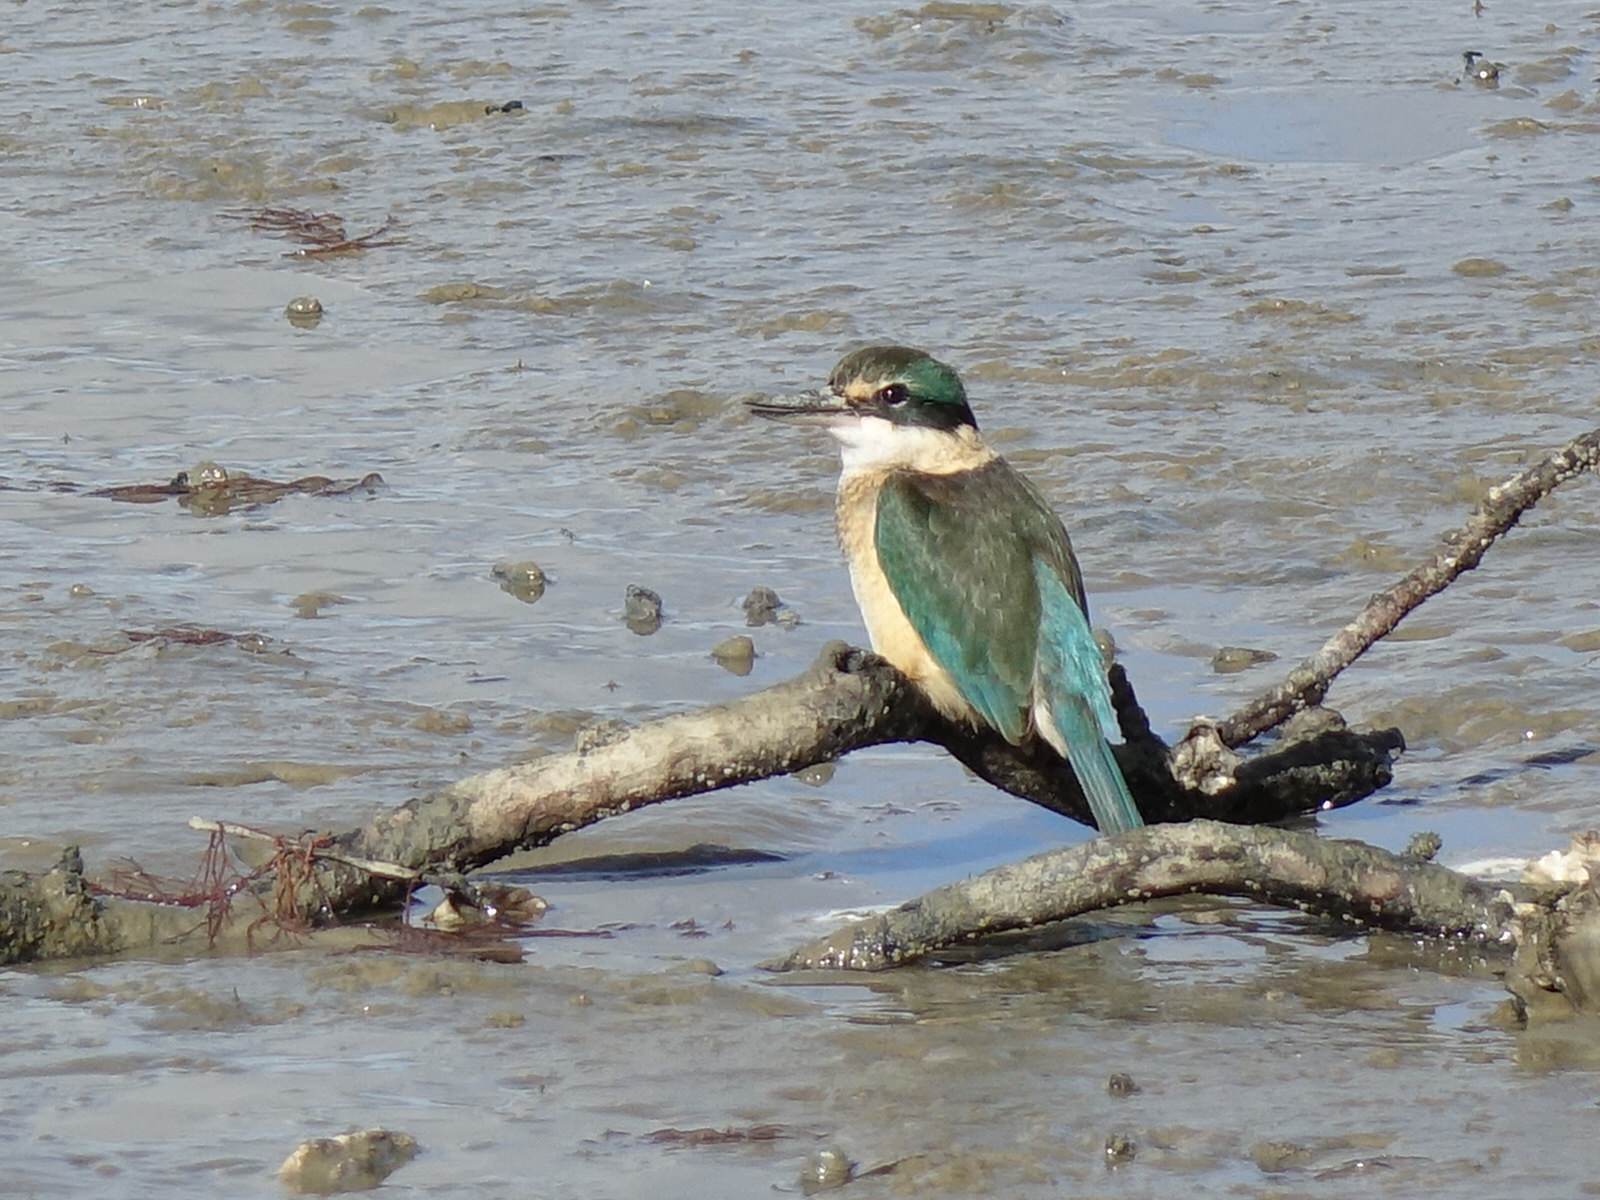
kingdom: Animalia
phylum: Chordata
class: Aves
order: Coraciiformes
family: Alcedinidae
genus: Todiramphus
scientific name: Todiramphus sanctus
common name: Sacred kingfisher
